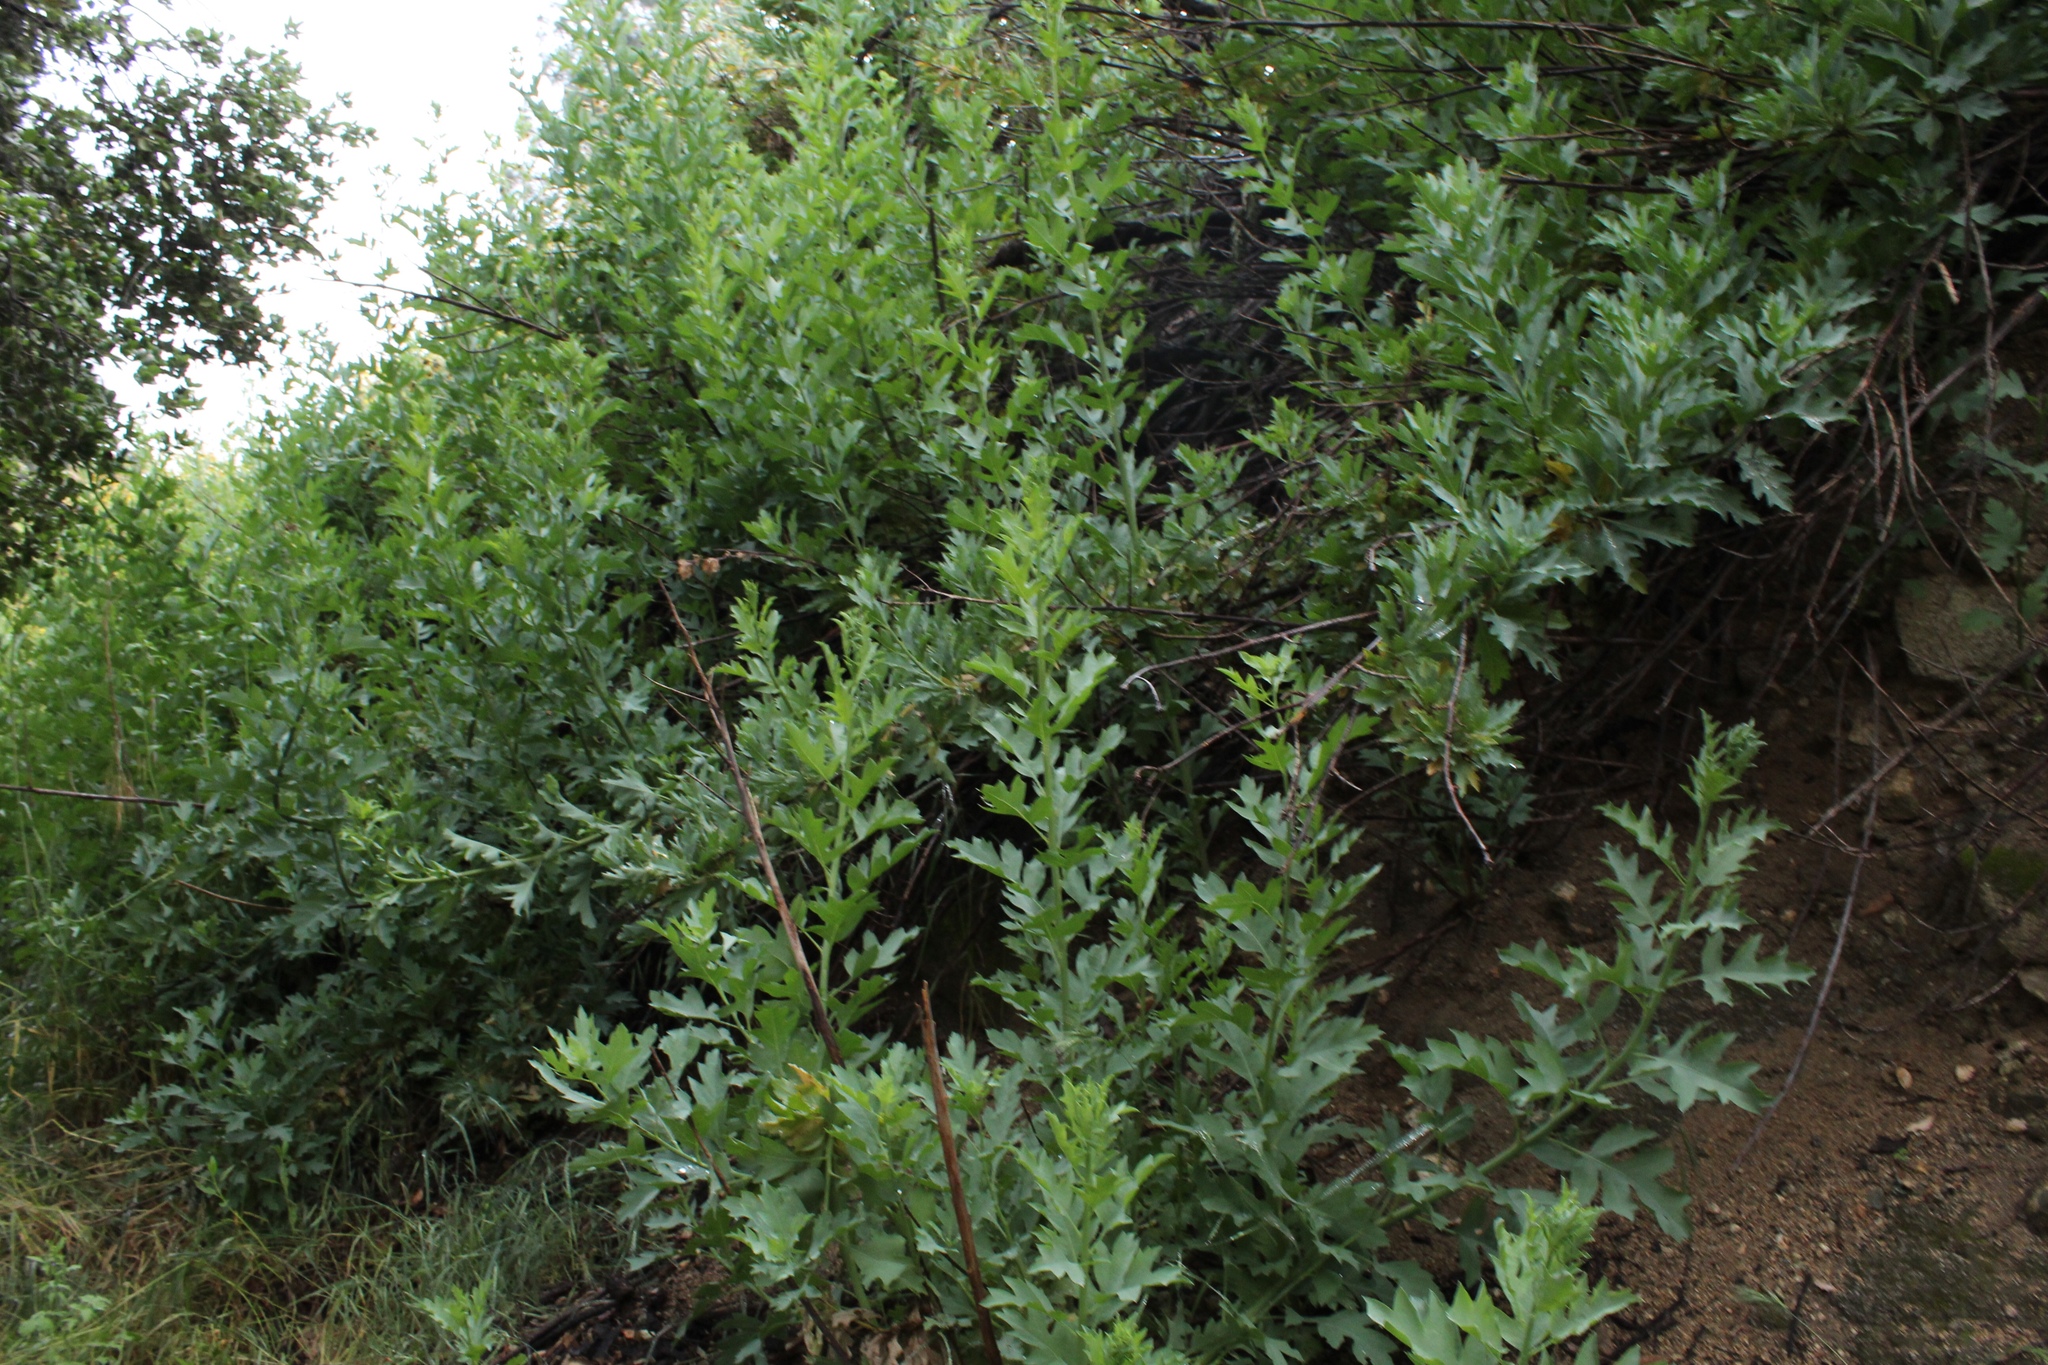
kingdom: Plantae
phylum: Tracheophyta
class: Magnoliopsida
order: Asterales
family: Asteraceae
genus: Artemisia
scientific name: Artemisia douglasiana
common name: Northwest mugwort
